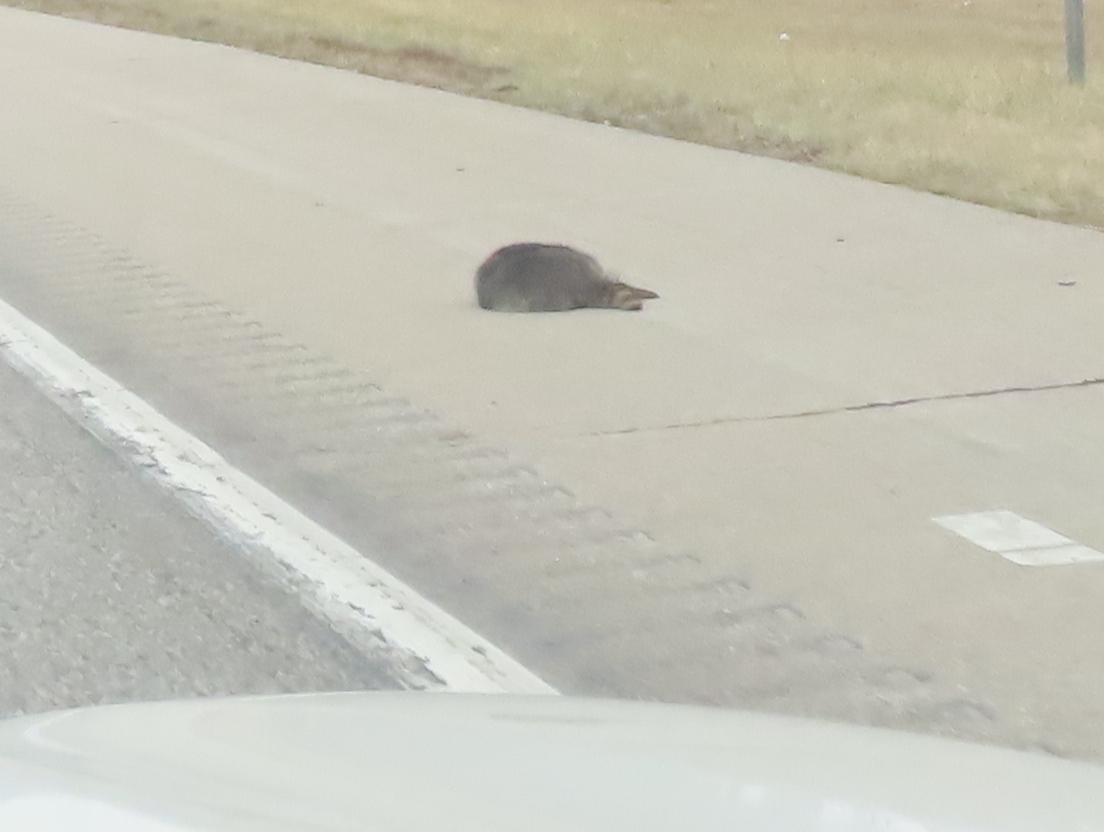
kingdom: Animalia
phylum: Chordata
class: Mammalia
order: Carnivora
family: Procyonidae
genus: Procyon
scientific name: Procyon lotor
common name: Raccoon
